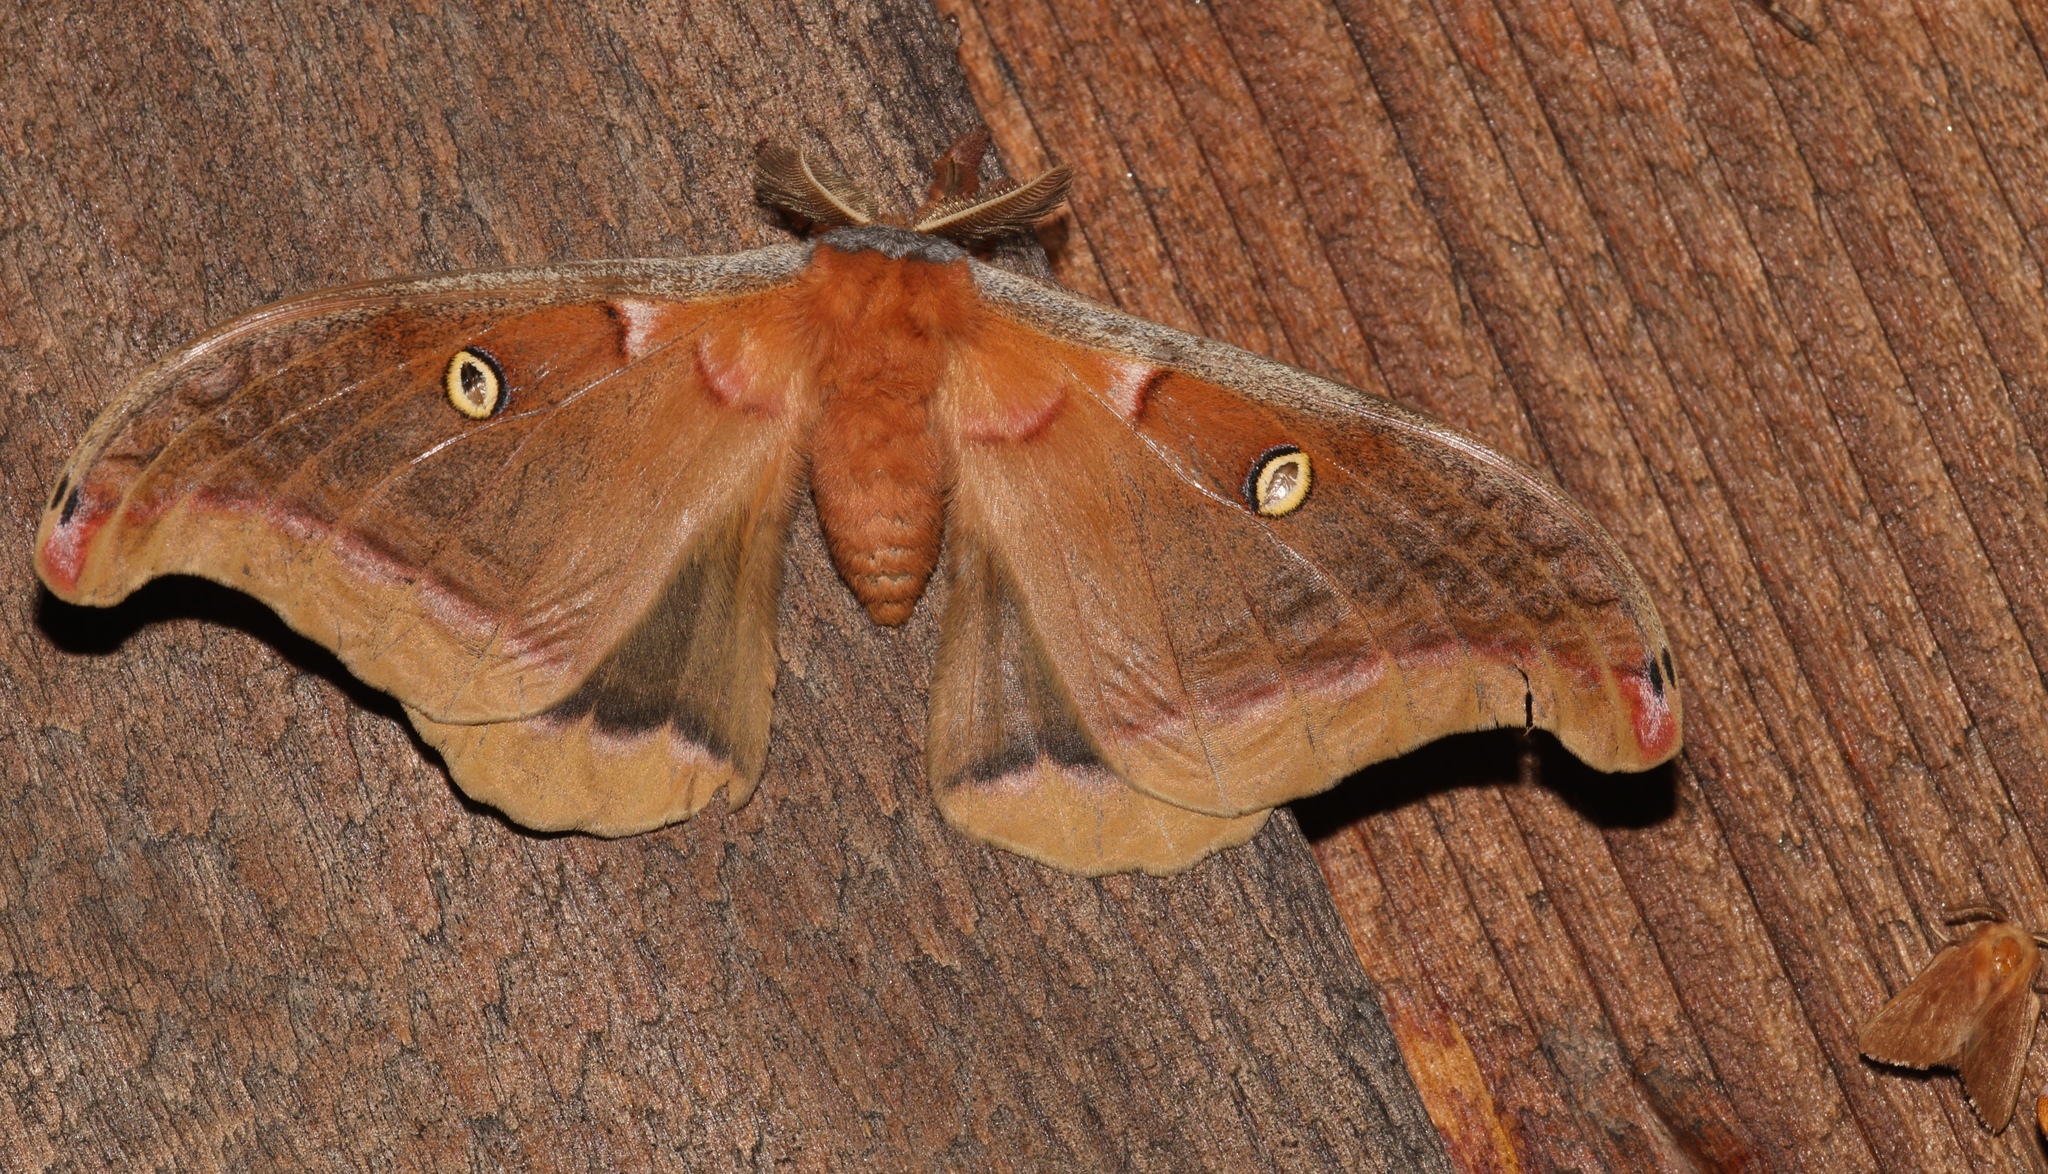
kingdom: Animalia
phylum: Arthropoda
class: Insecta
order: Lepidoptera
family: Saturniidae
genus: Antheraea
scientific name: Antheraea polyphemus
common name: Polyphemus moth
